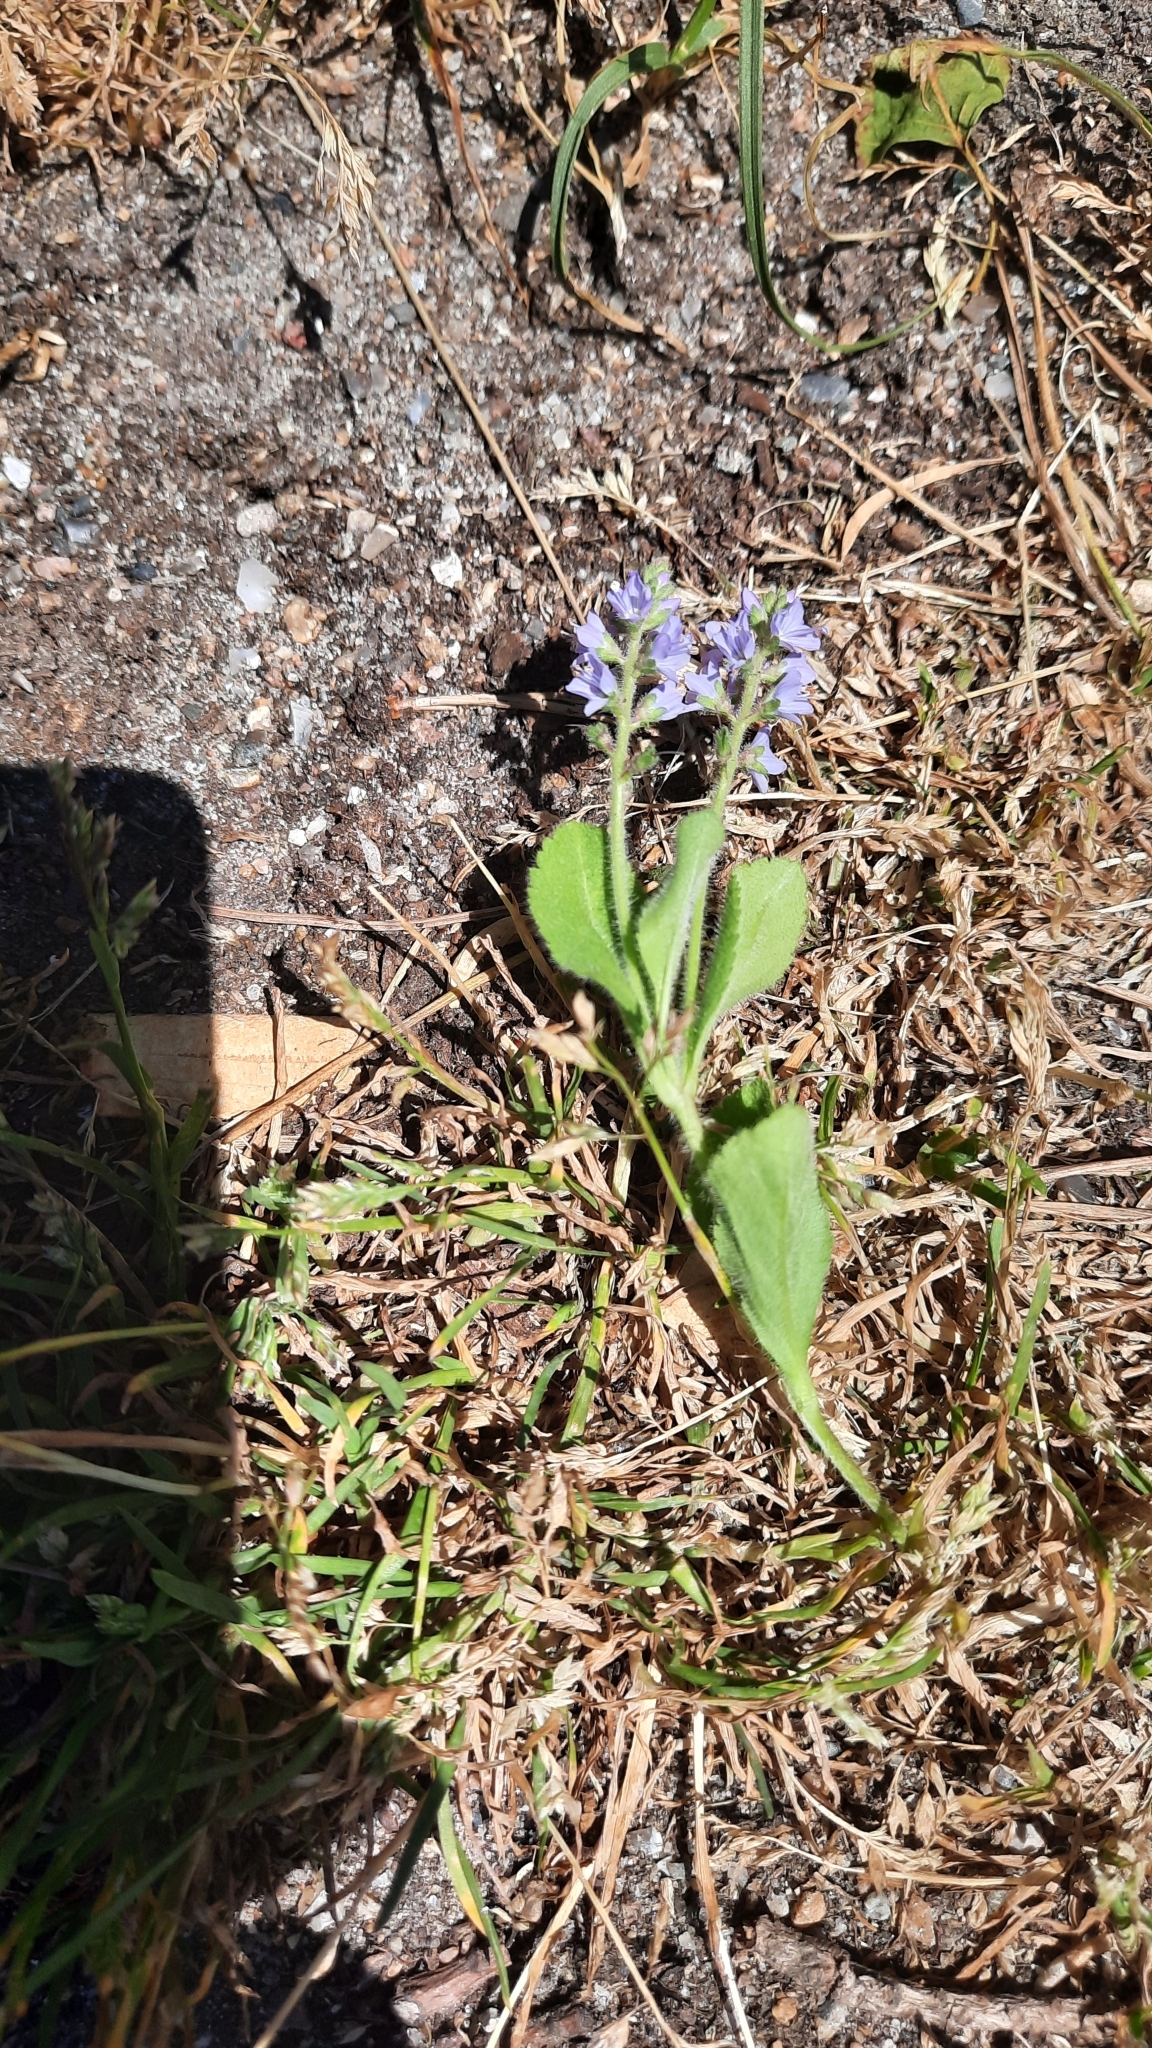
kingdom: Plantae
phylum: Tracheophyta
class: Magnoliopsida
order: Lamiales
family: Plantaginaceae
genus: Veronica
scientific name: Veronica officinalis
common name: Common speedwell
